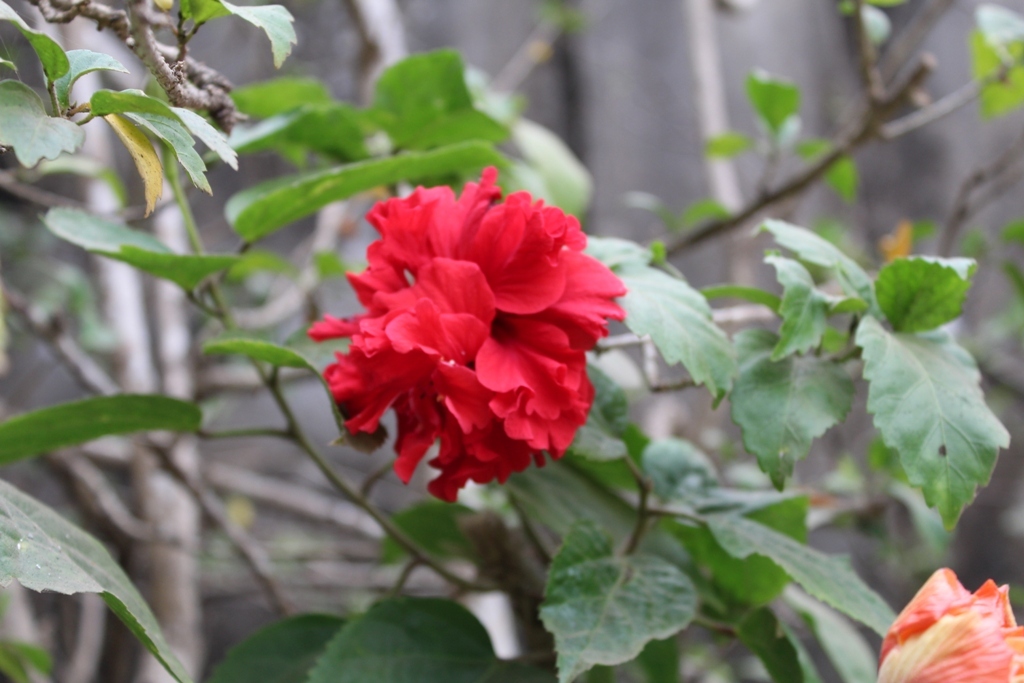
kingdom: Plantae
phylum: Tracheophyta
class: Magnoliopsida
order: Malvales
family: Malvaceae
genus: Hibiscus
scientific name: Hibiscus rosa-sinensis
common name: Hibiscus
